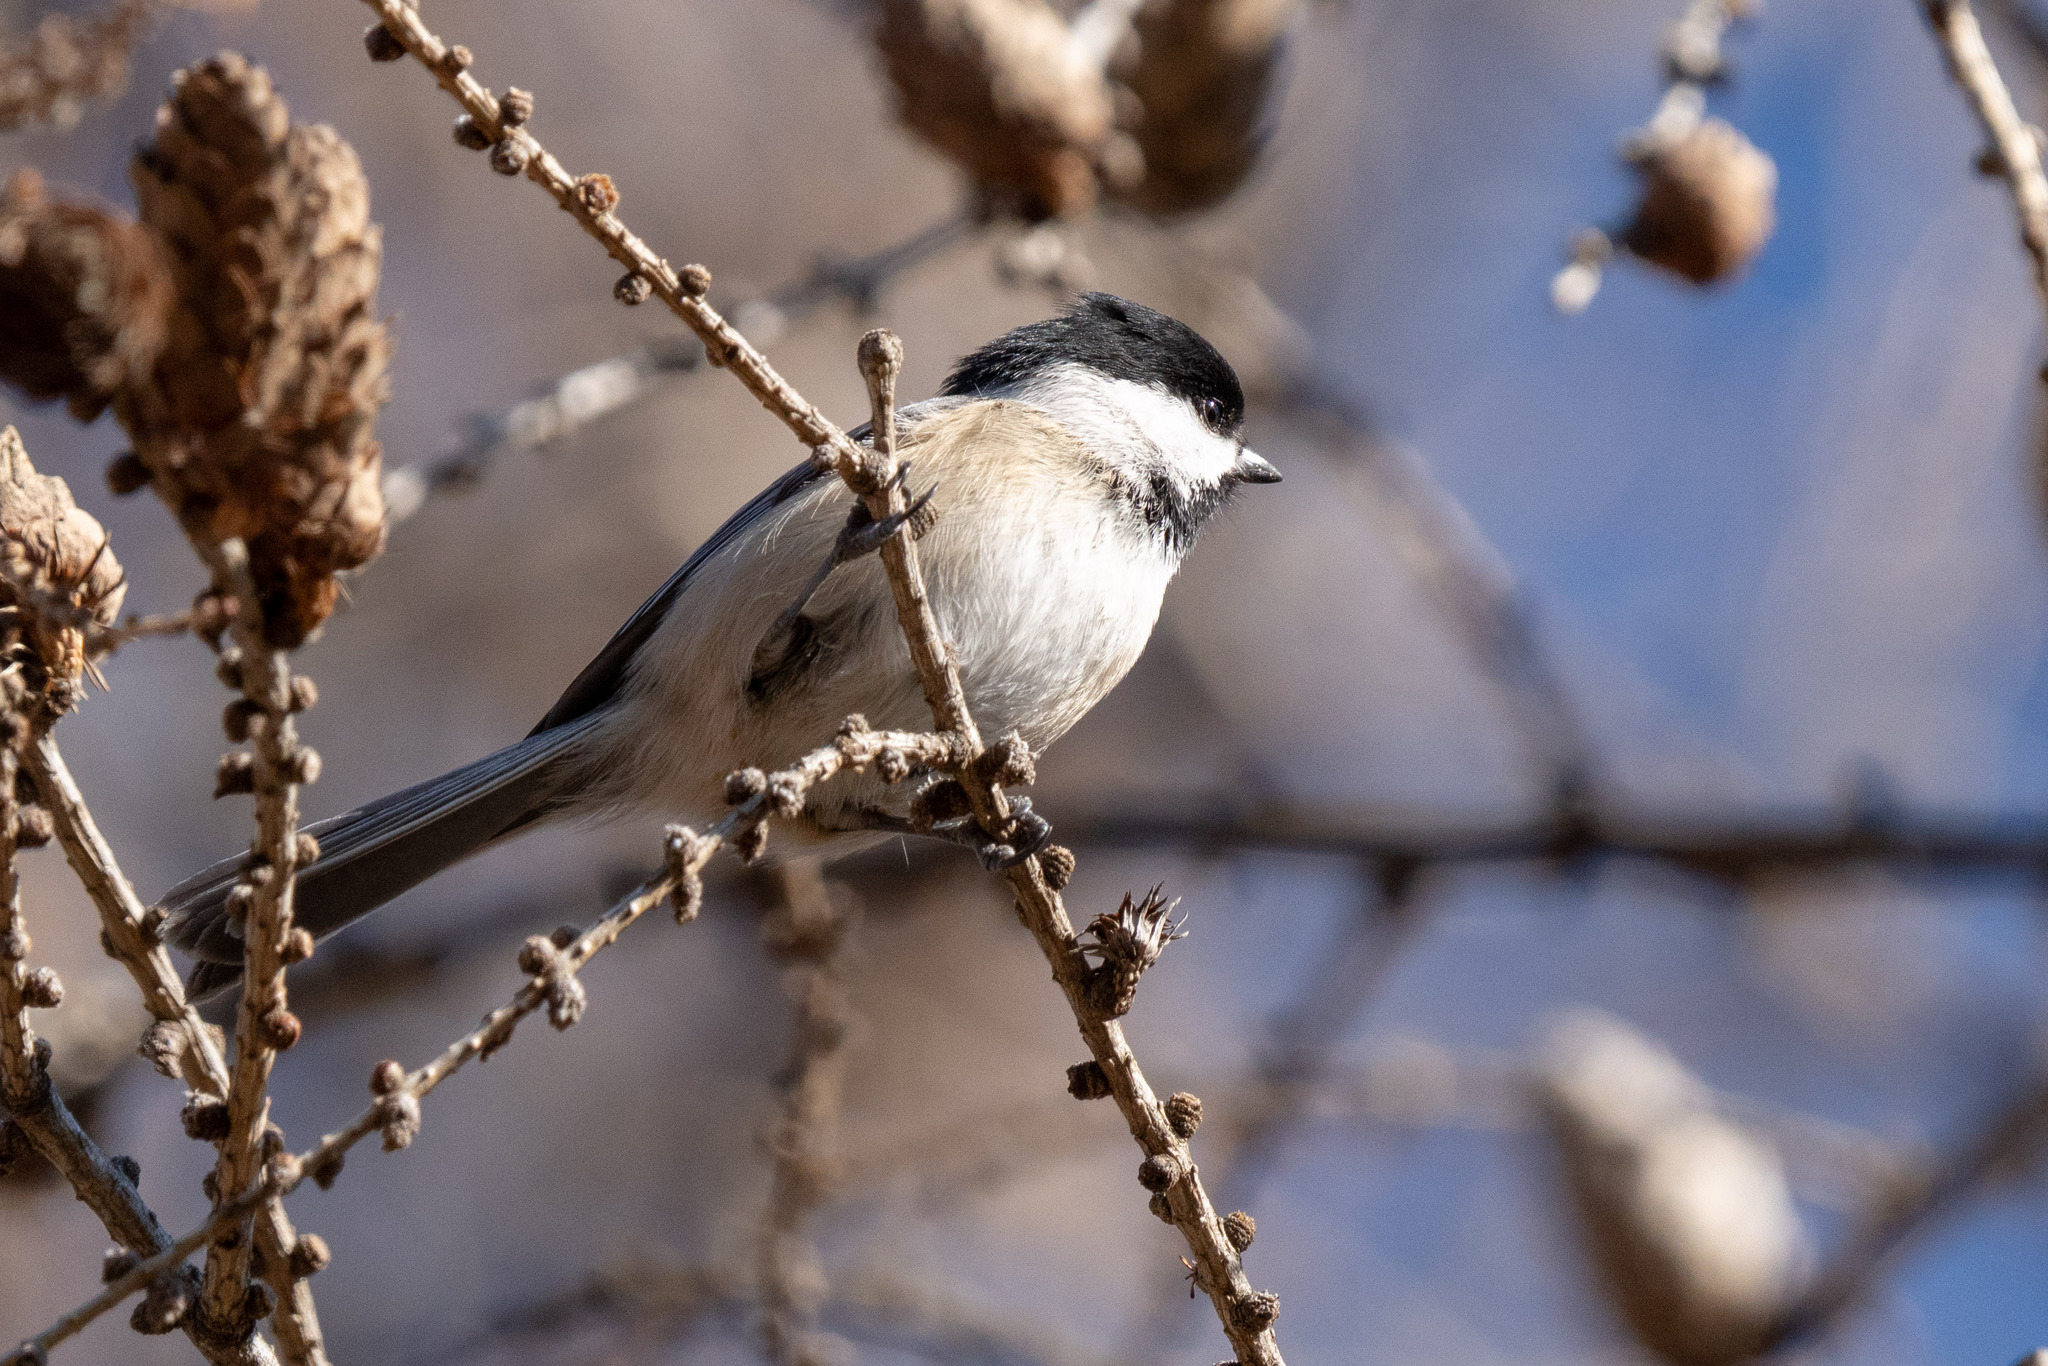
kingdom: Animalia
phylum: Chordata
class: Aves
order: Passeriformes
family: Paridae
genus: Poecile
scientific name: Poecile atricapillus
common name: Black-capped chickadee
